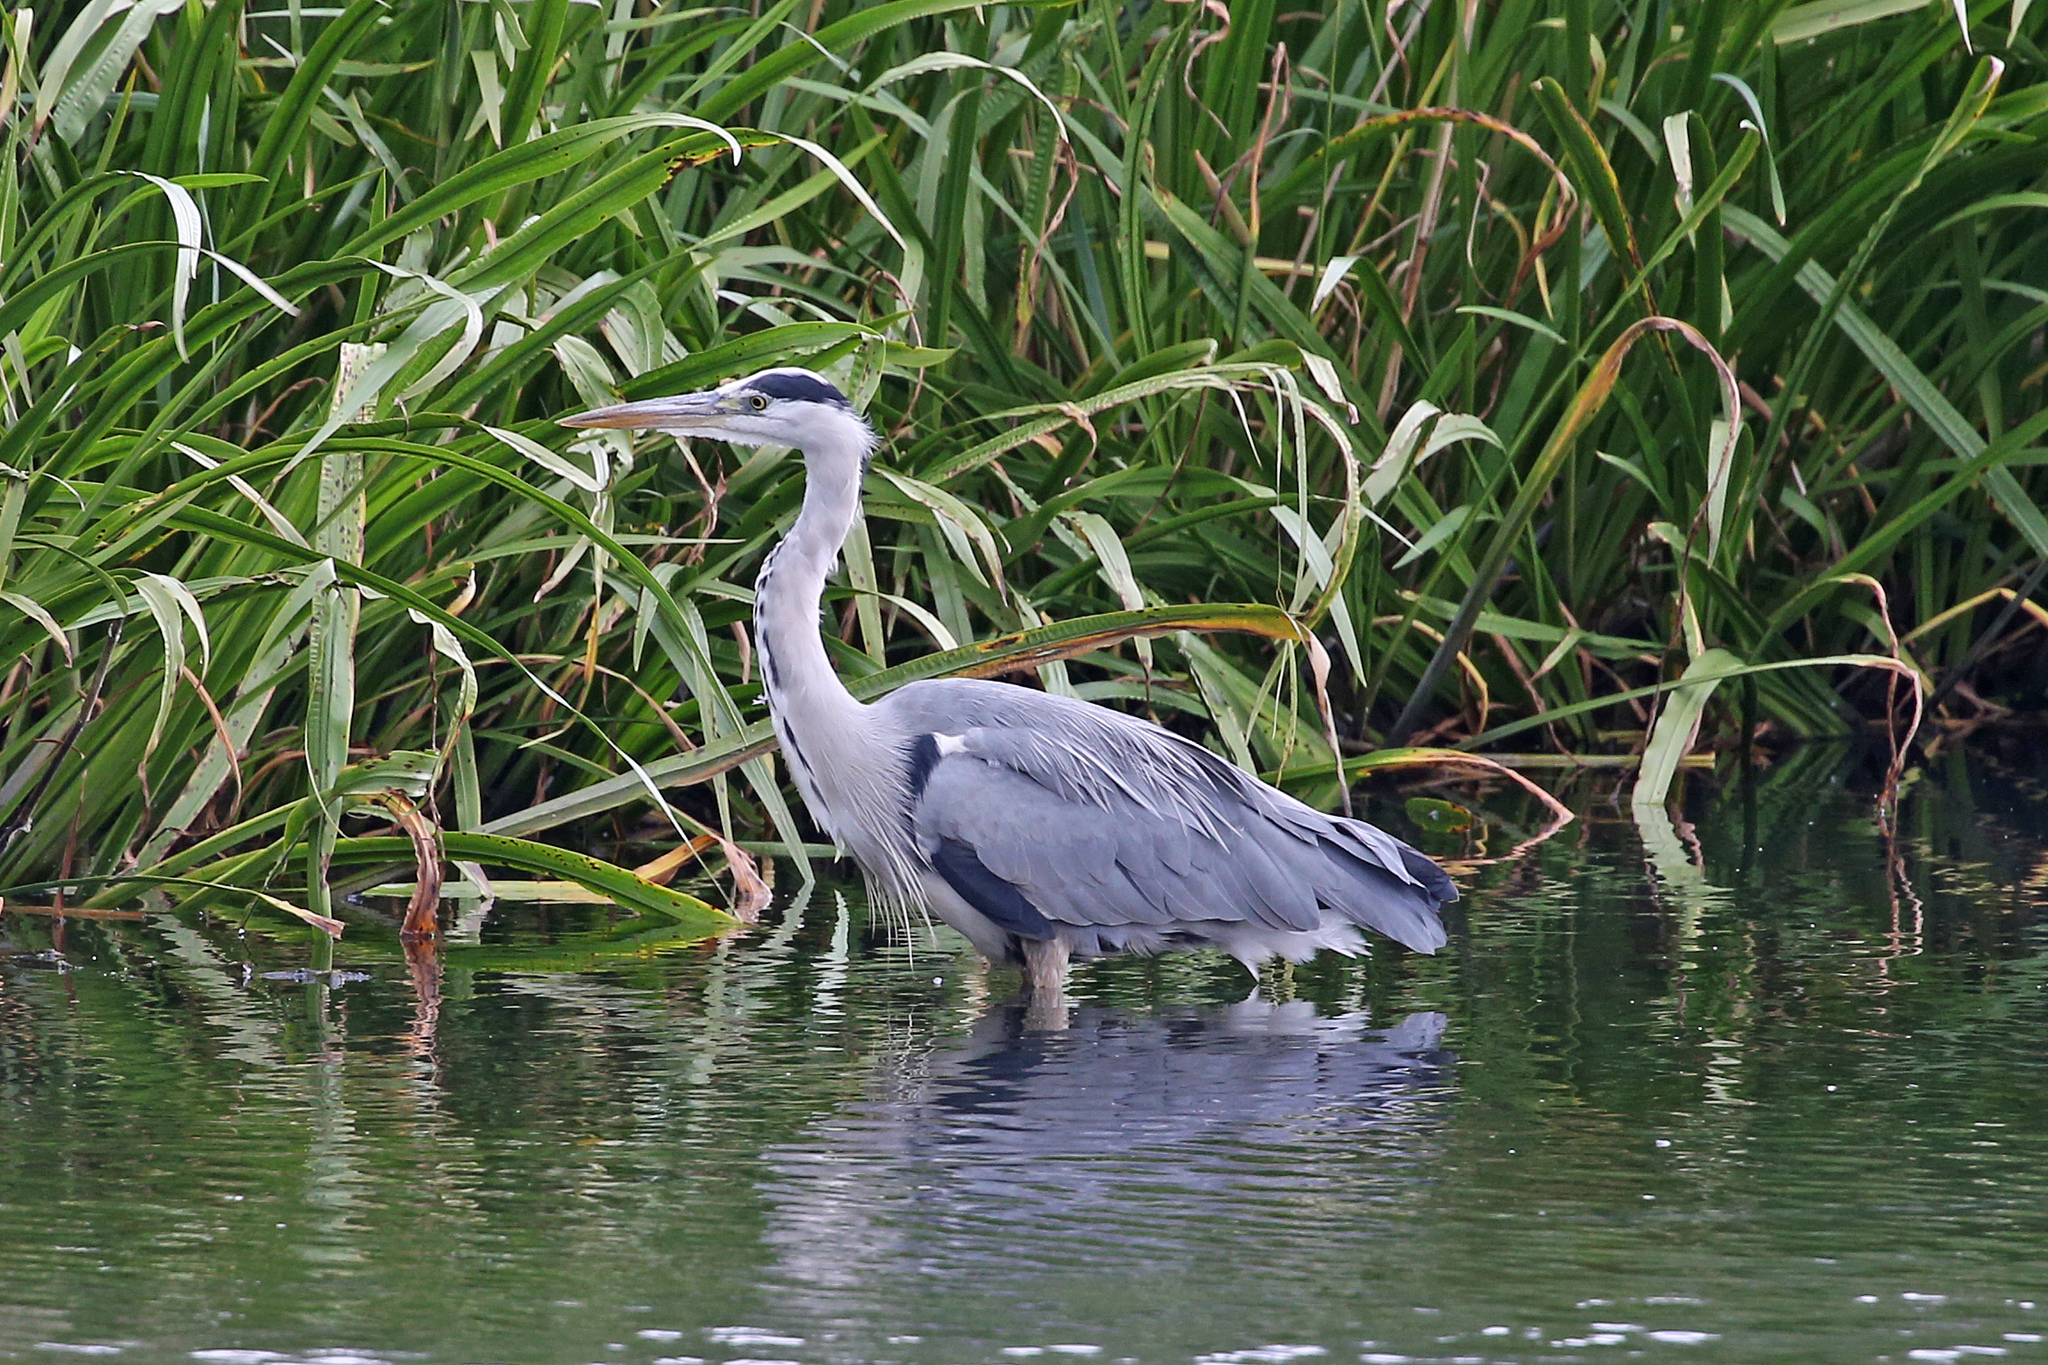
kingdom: Animalia
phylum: Chordata
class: Aves
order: Pelecaniformes
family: Ardeidae
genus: Ardea
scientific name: Ardea cinerea
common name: Grey heron
